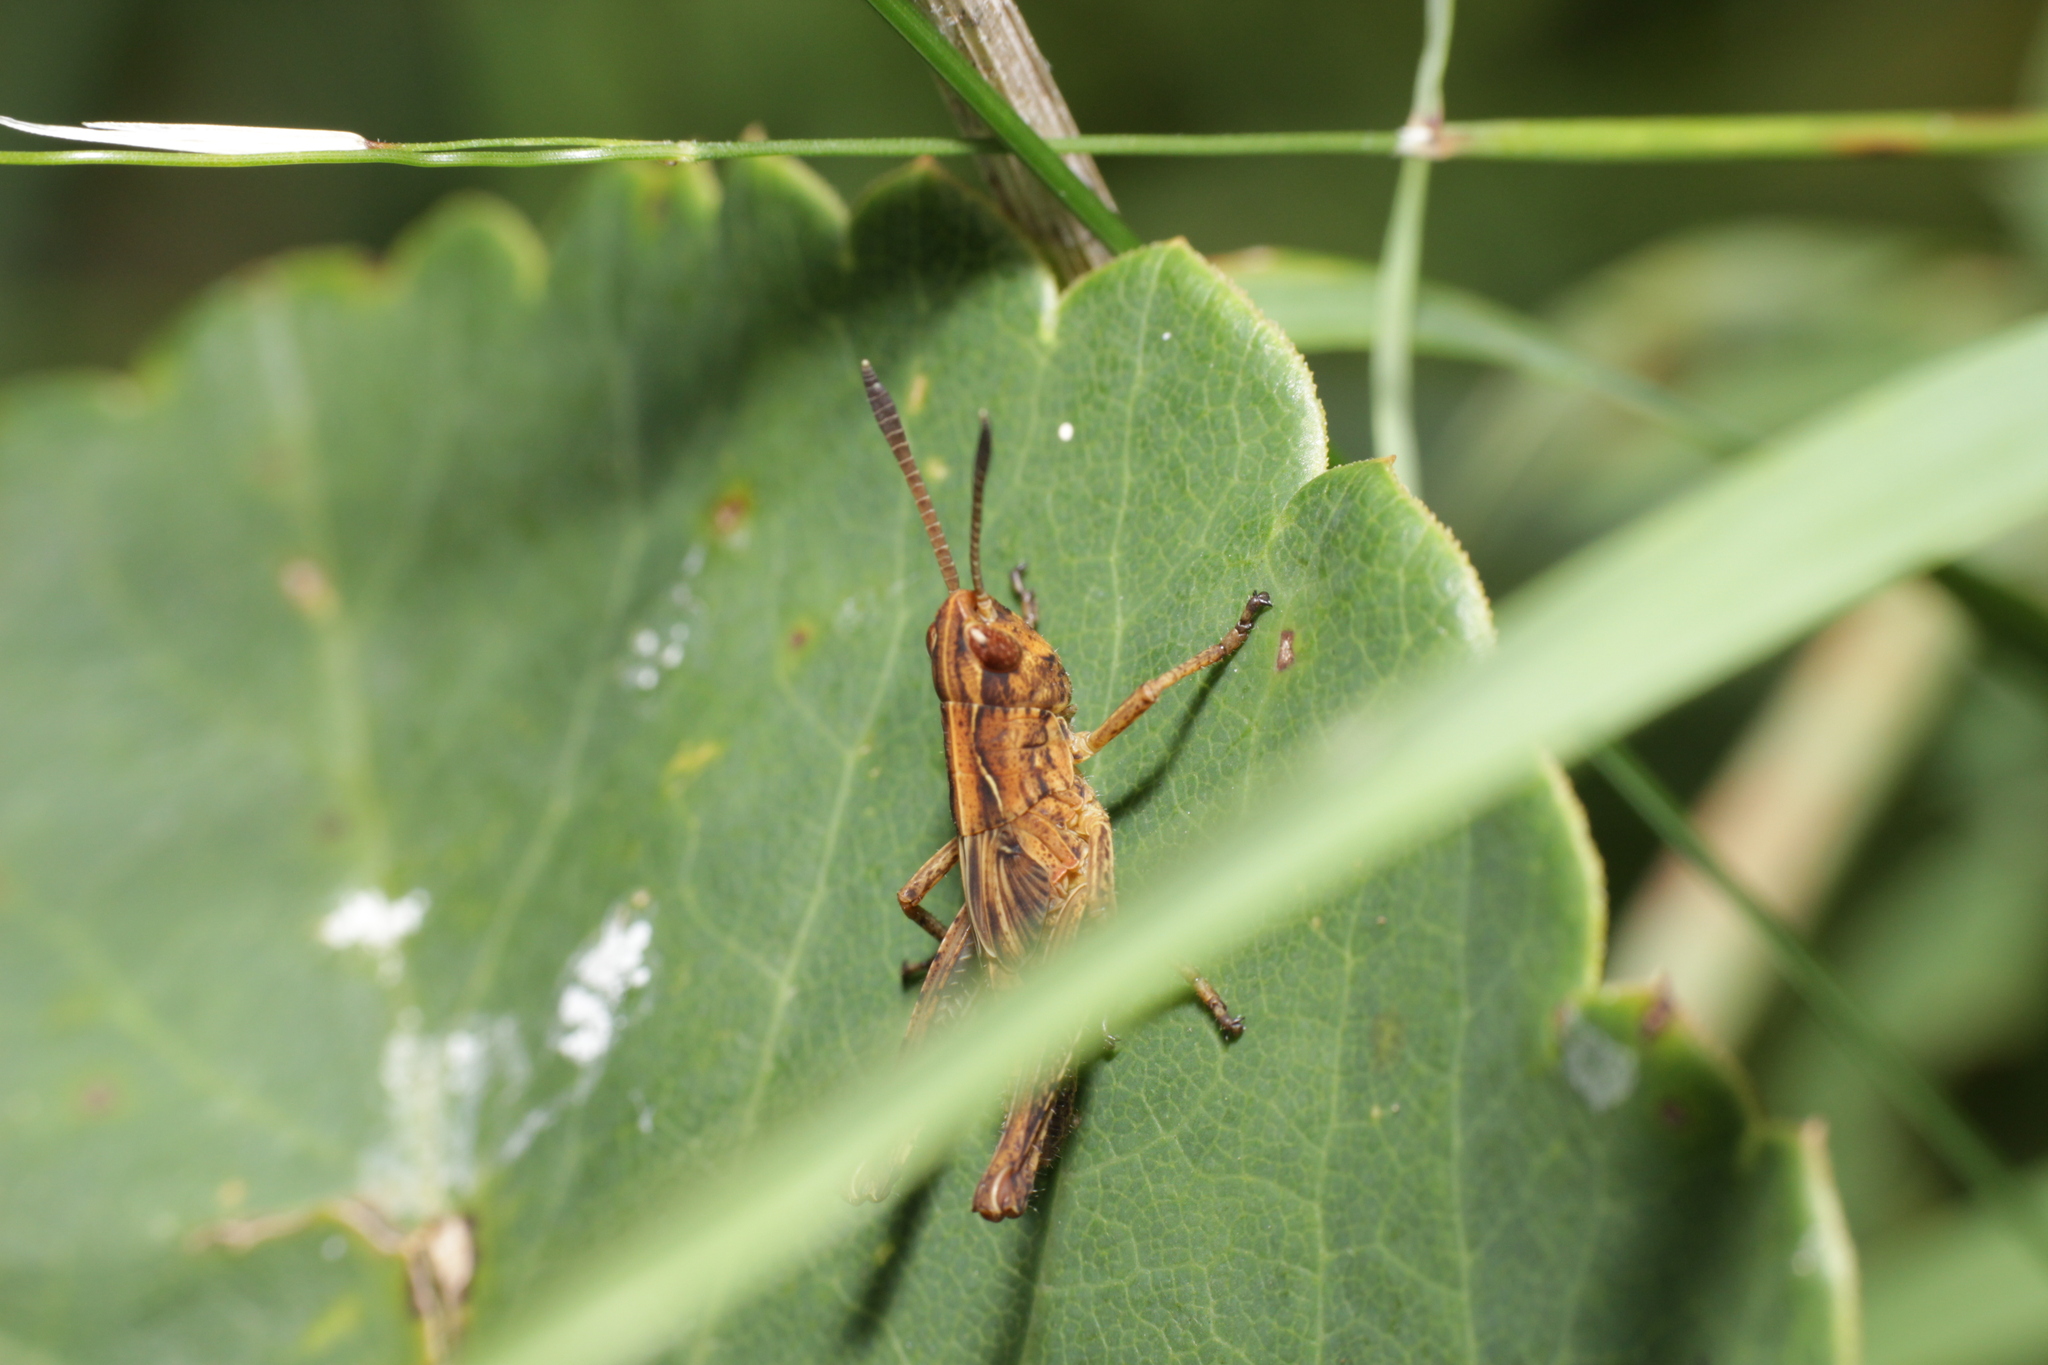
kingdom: Animalia
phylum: Arthropoda
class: Insecta
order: Orthoptera
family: Acrididae
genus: Gomphocerippus
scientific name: Gomphocerippus rufus
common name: Rufous grasshopper
